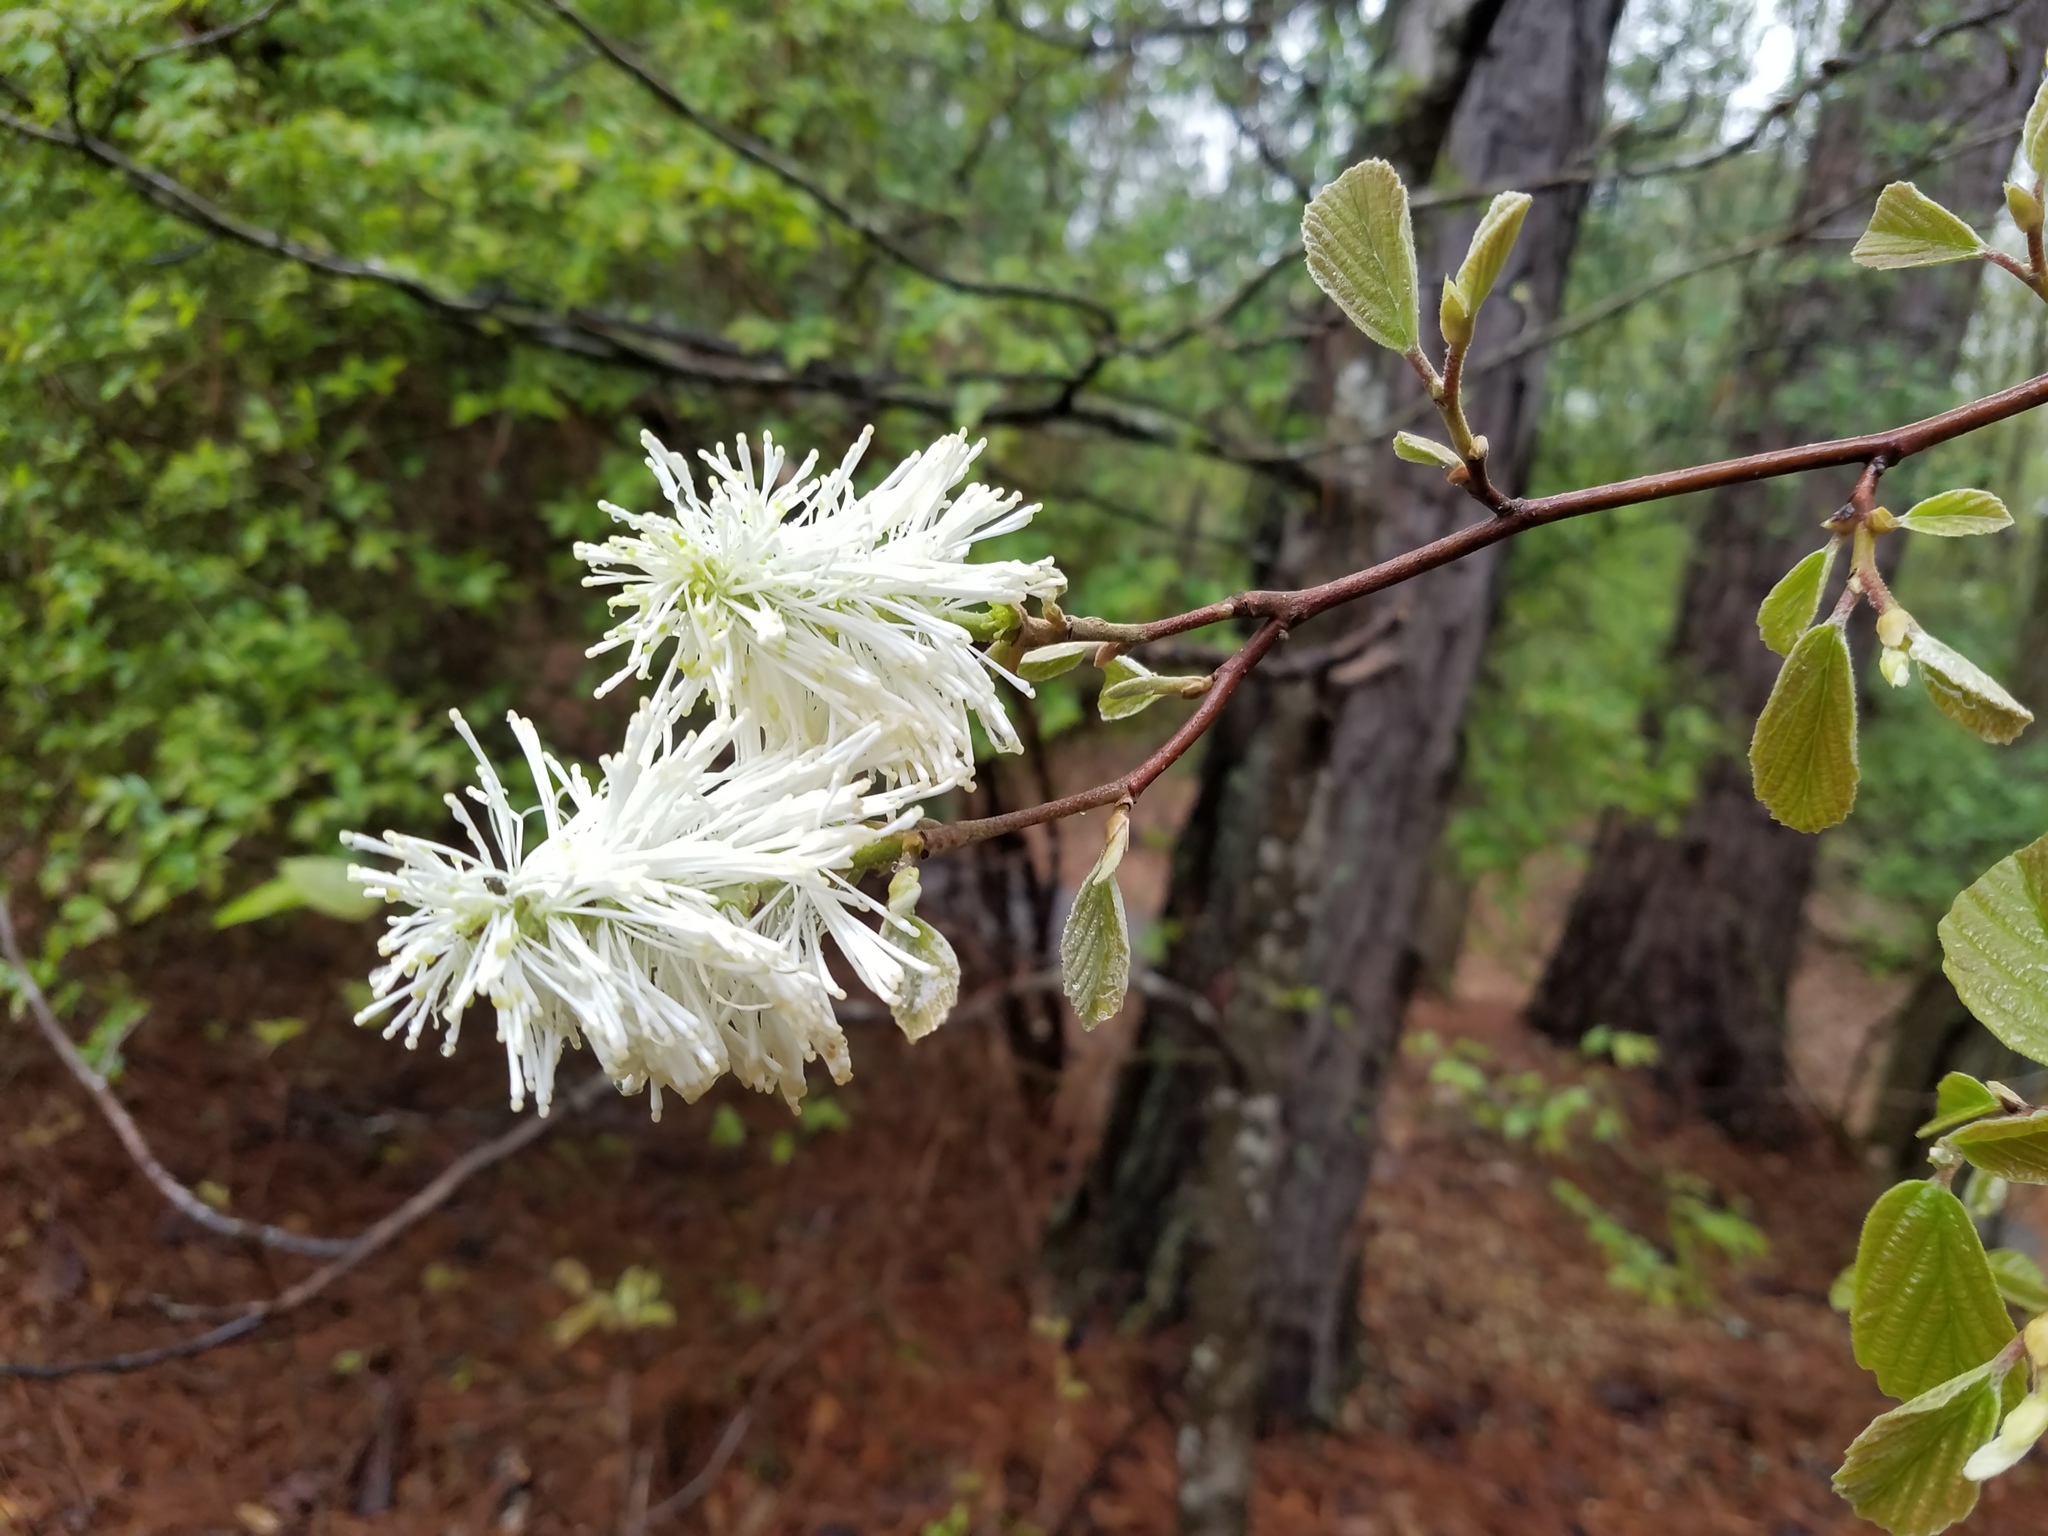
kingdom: Plantae
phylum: Tracheophyta
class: Magnoliopsida
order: Saxifragales
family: Hamamelidaceae
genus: Fothergilla
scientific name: Fothergilla latifolia
